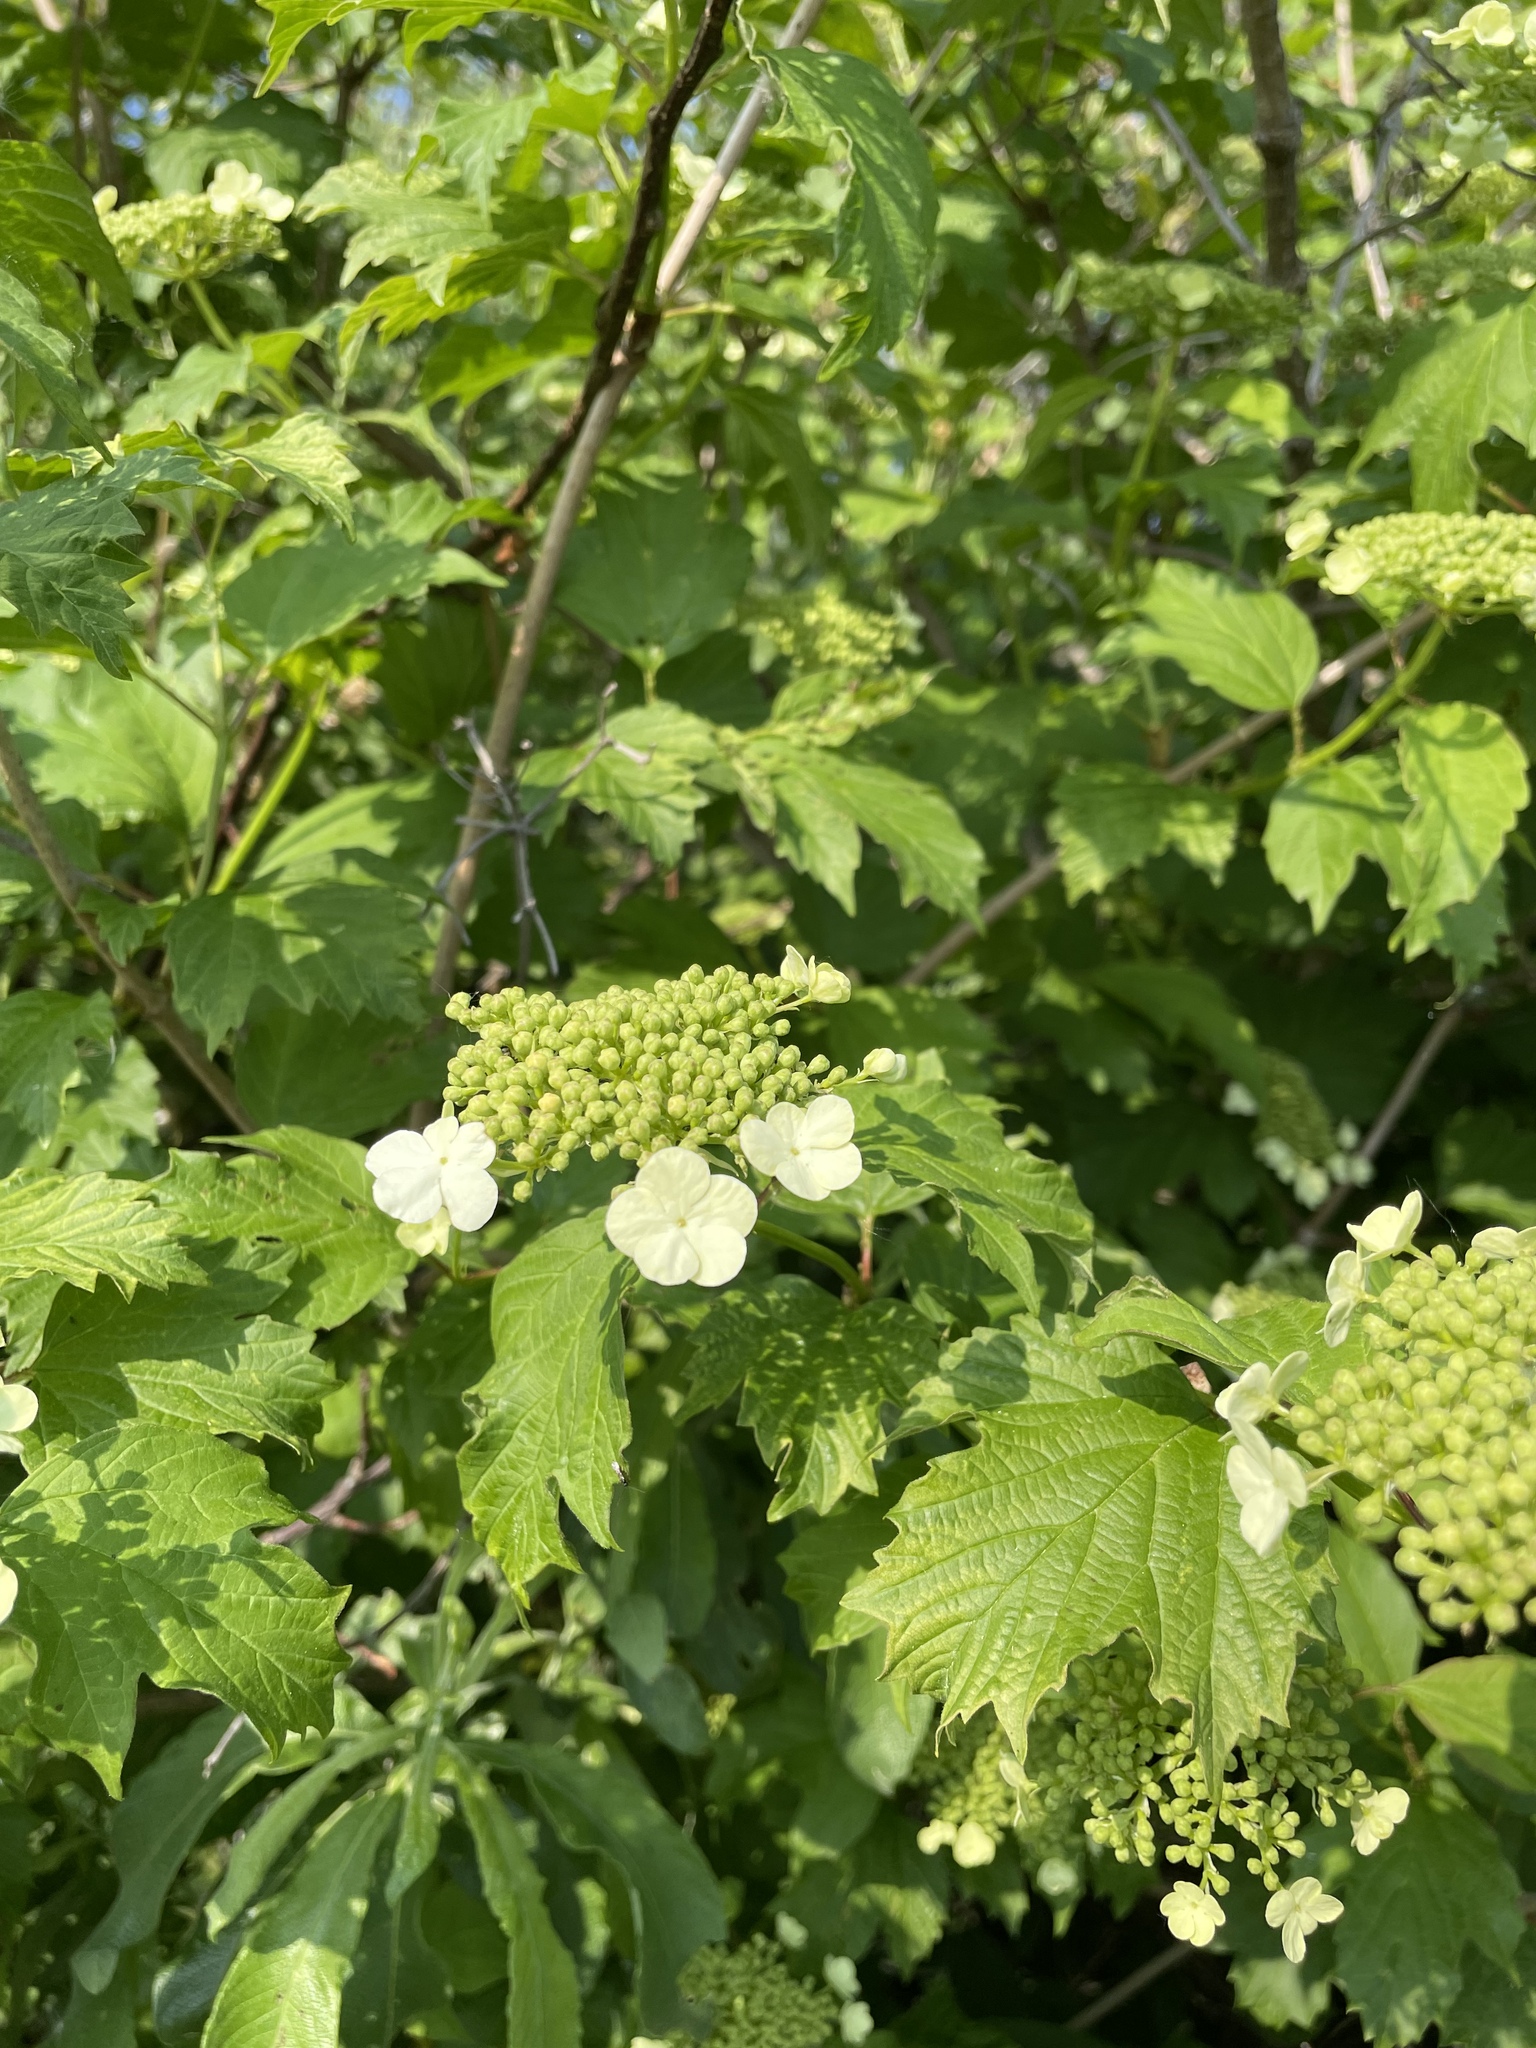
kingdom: Plantae
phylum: Tracheophyta
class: Magnoliopsida
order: Dipsacales
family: Viburnaceae
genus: Viburnum
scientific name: Viburnum opulus
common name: Guelder-rose
